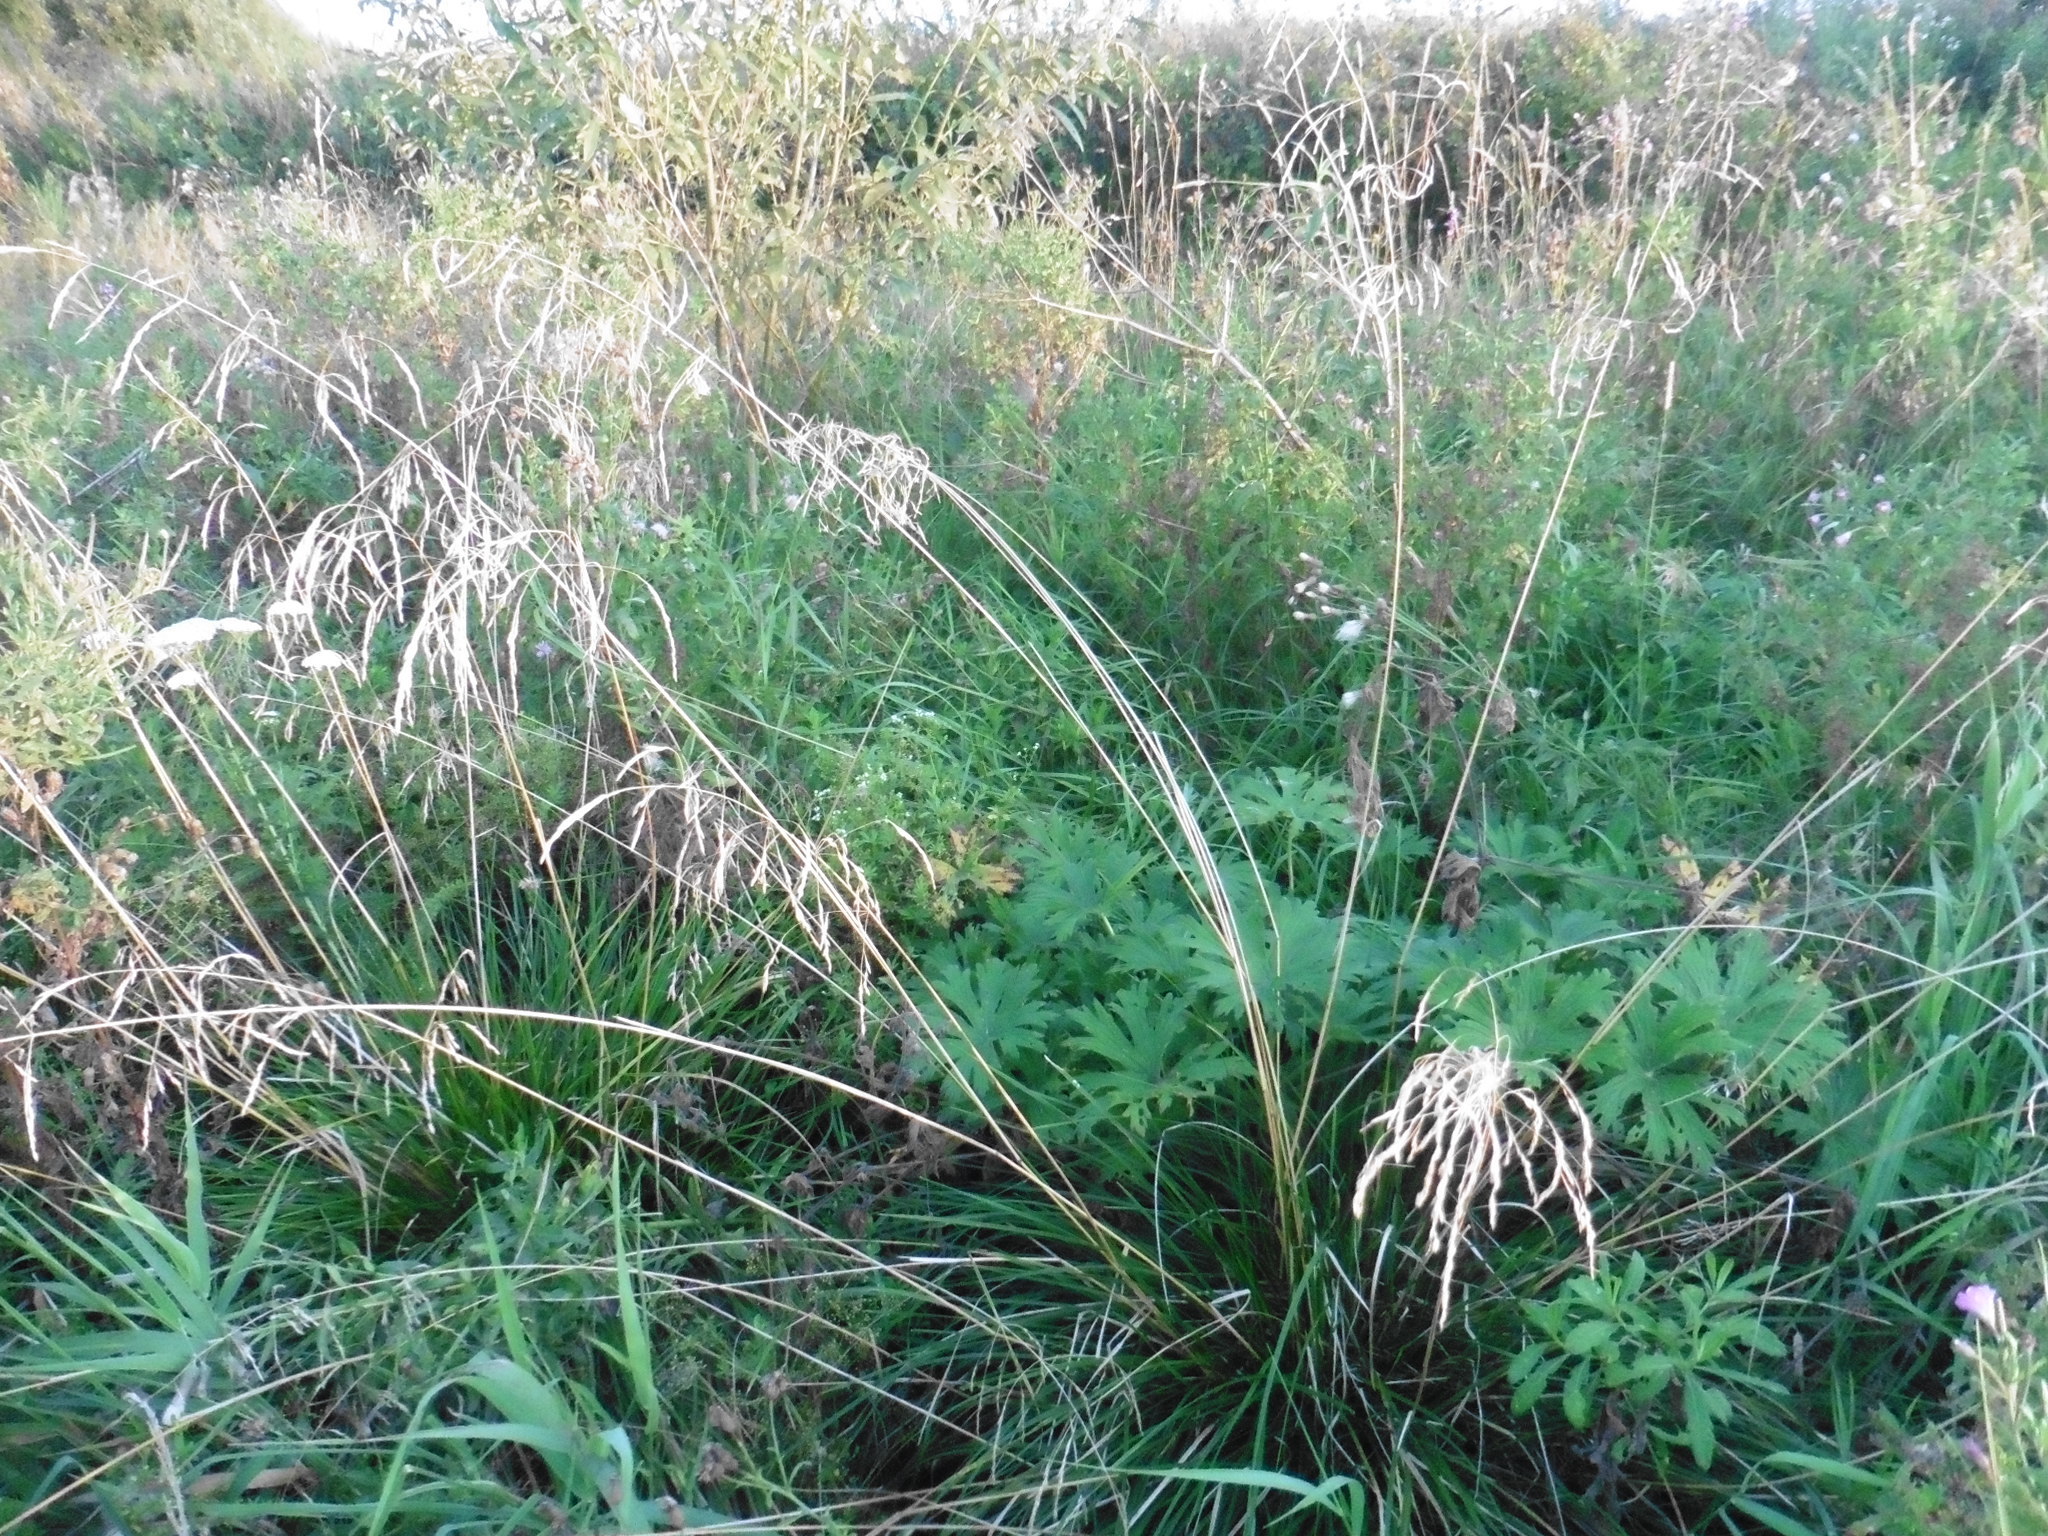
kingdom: Plantae
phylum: Tracheophyta
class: Liliopsida
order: Poales
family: Poaceae
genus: Deschampsia
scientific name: Deschampsia cespitosa
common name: Tufted hair-grass
